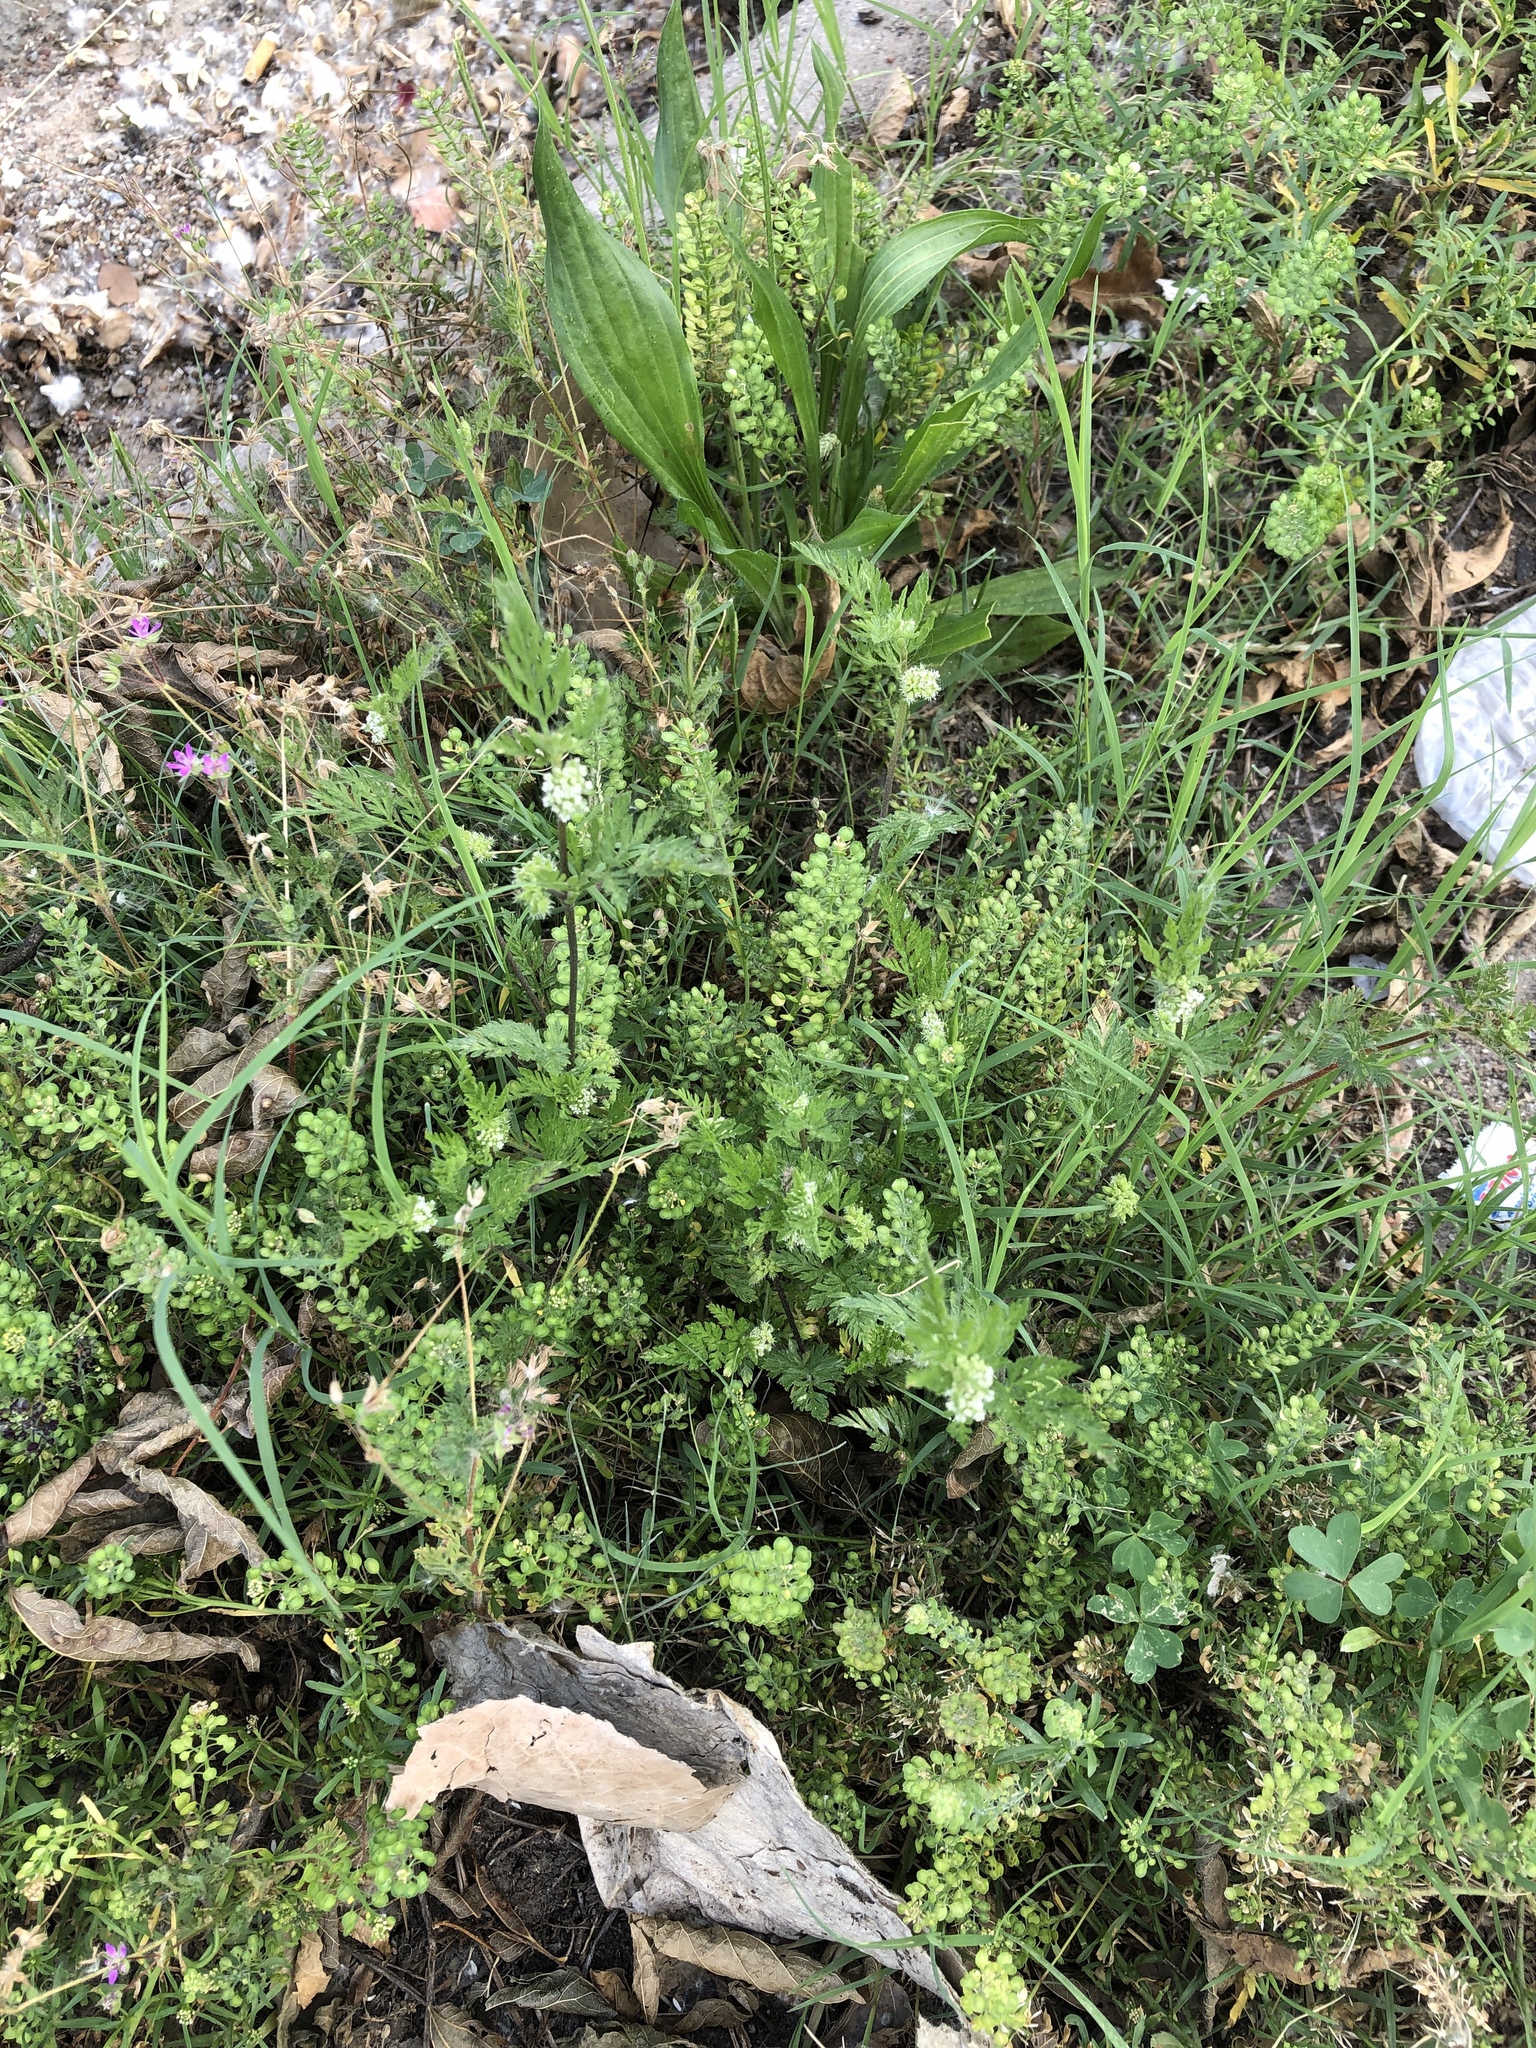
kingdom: Plantae
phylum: Tracheophyta
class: Magnoliopsida
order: Apiales
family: Apiaceae
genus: Torilis
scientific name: Torilis nodosa
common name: Knotted hedge-parsley
